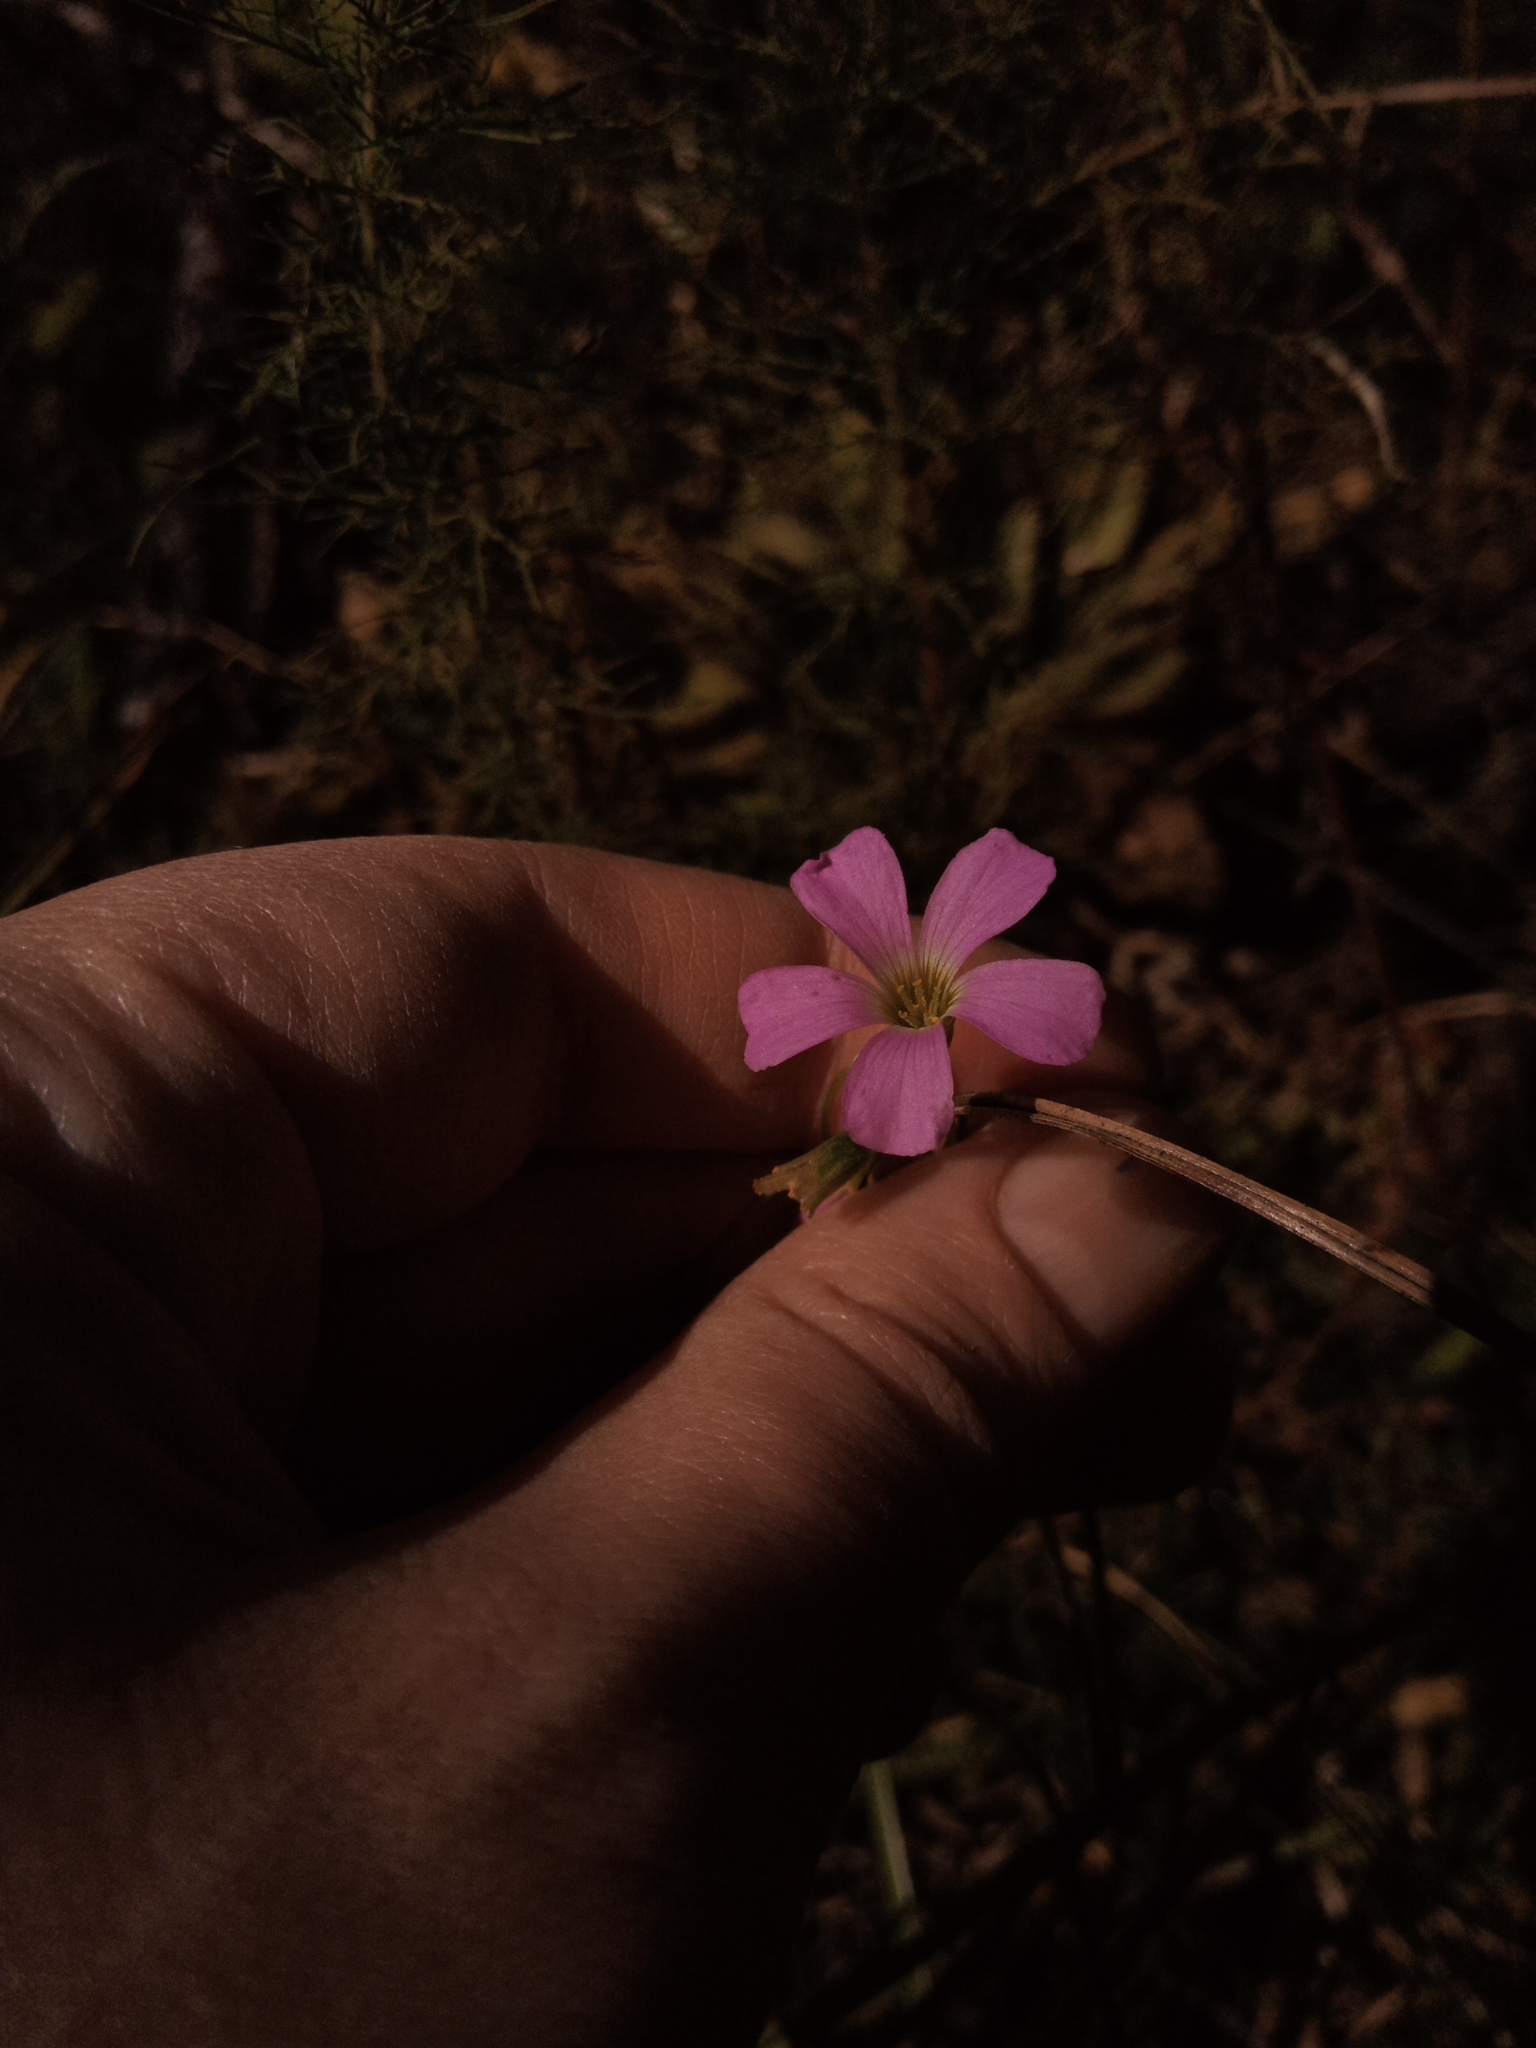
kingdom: Plantae
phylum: Tracheophyta
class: Magnoliopsida
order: Oxalidales
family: Oxalidaceae
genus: Oxalis
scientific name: Oxalis violacea
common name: Violet wood-sorrel
